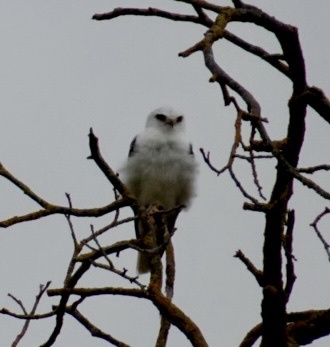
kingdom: Animalia
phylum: Chordata
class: Aves
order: Accipitriformes
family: Accipitridae
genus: Elanus
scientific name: Elanus leucurus
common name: White-tailed kite
